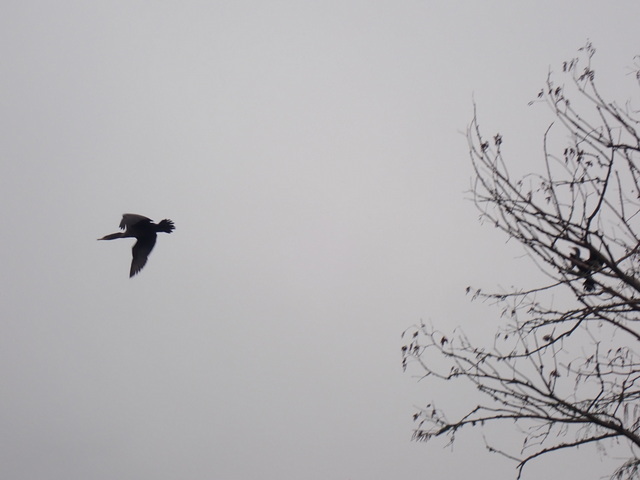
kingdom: Animalia
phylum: Chordata
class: Aves
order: Suliformes
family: Phalacrocoracidae
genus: Phalacrocorax
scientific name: Phalacrocorax auritus
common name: Double-crested cormorant
